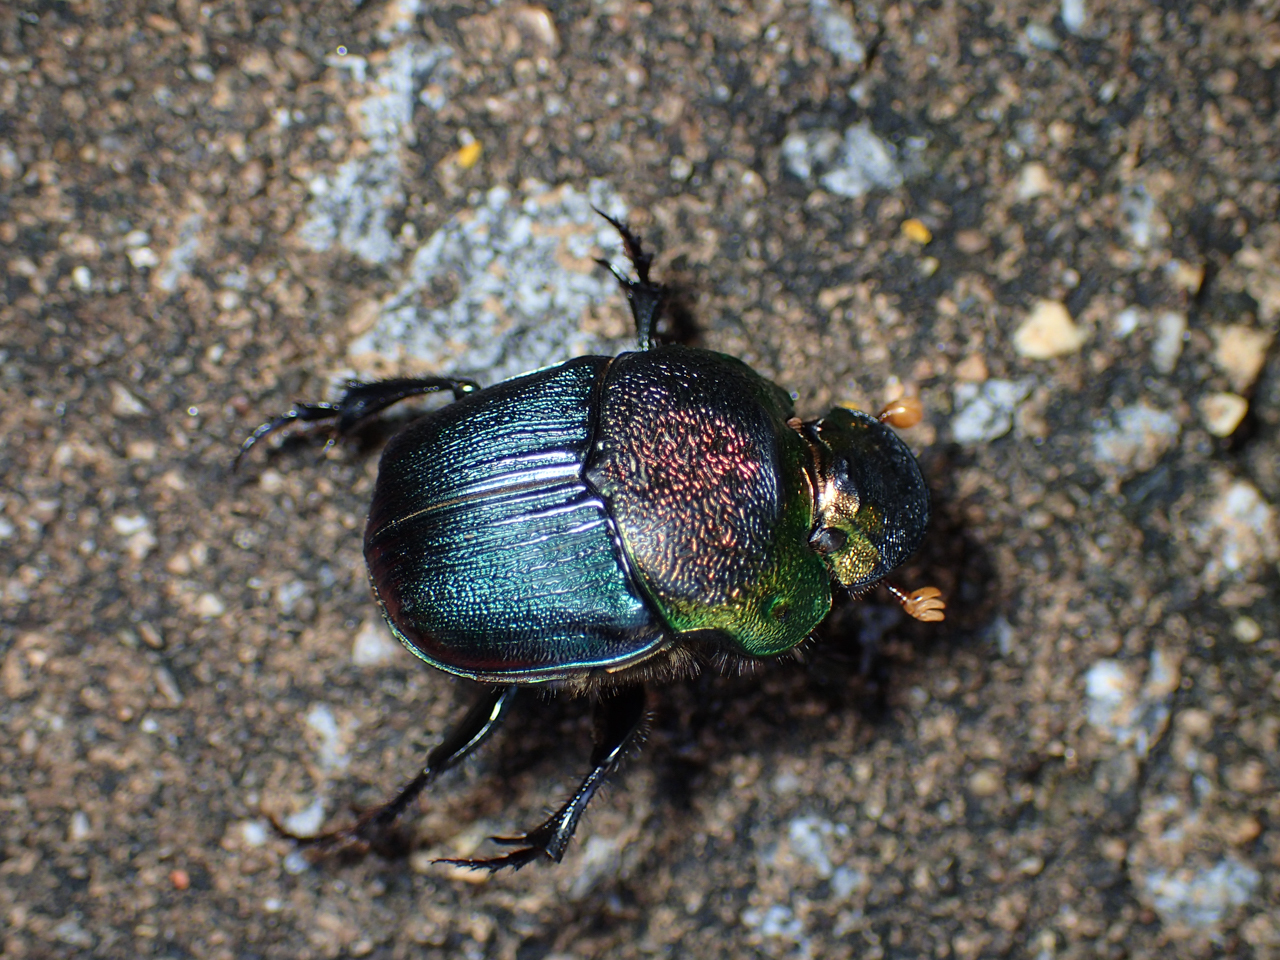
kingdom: Animalia
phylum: Arthropoda
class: Insecta
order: Coleoptera
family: Scarabaeidae
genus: Phanaeus
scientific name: Phanaeus vindex
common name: Rainbow scarab
